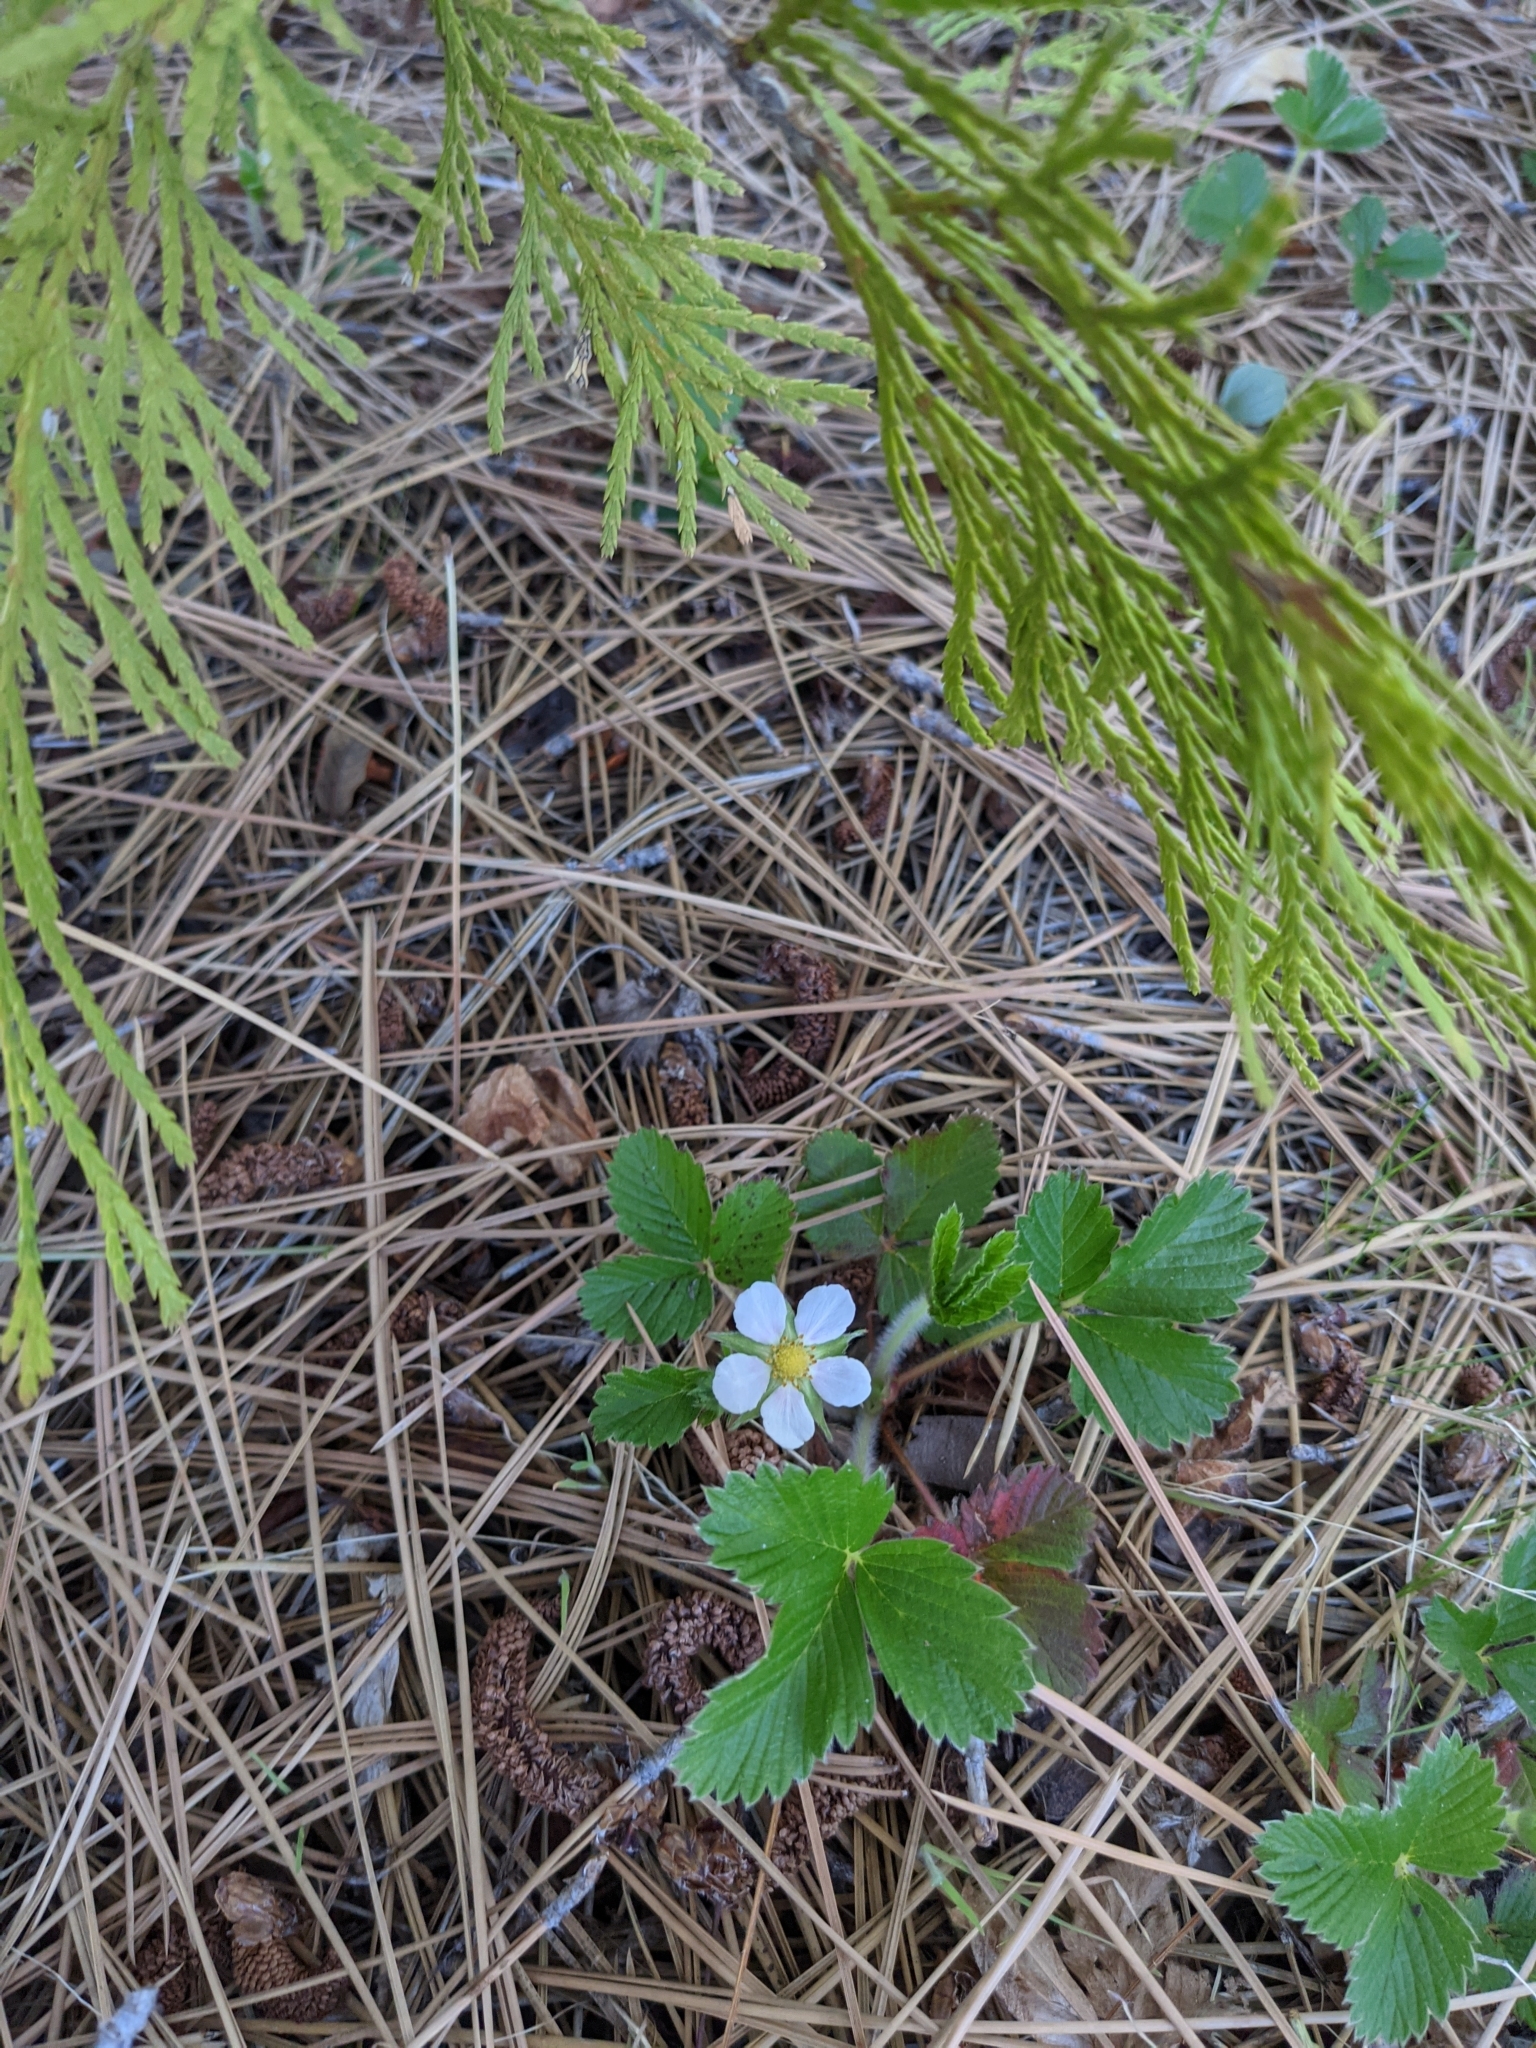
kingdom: Plantae
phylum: Tracheophyta
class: Magnoliopsida
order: Rosales
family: Rosaceae
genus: Fragaria
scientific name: Fragaria vesca
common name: Wild strawberry
